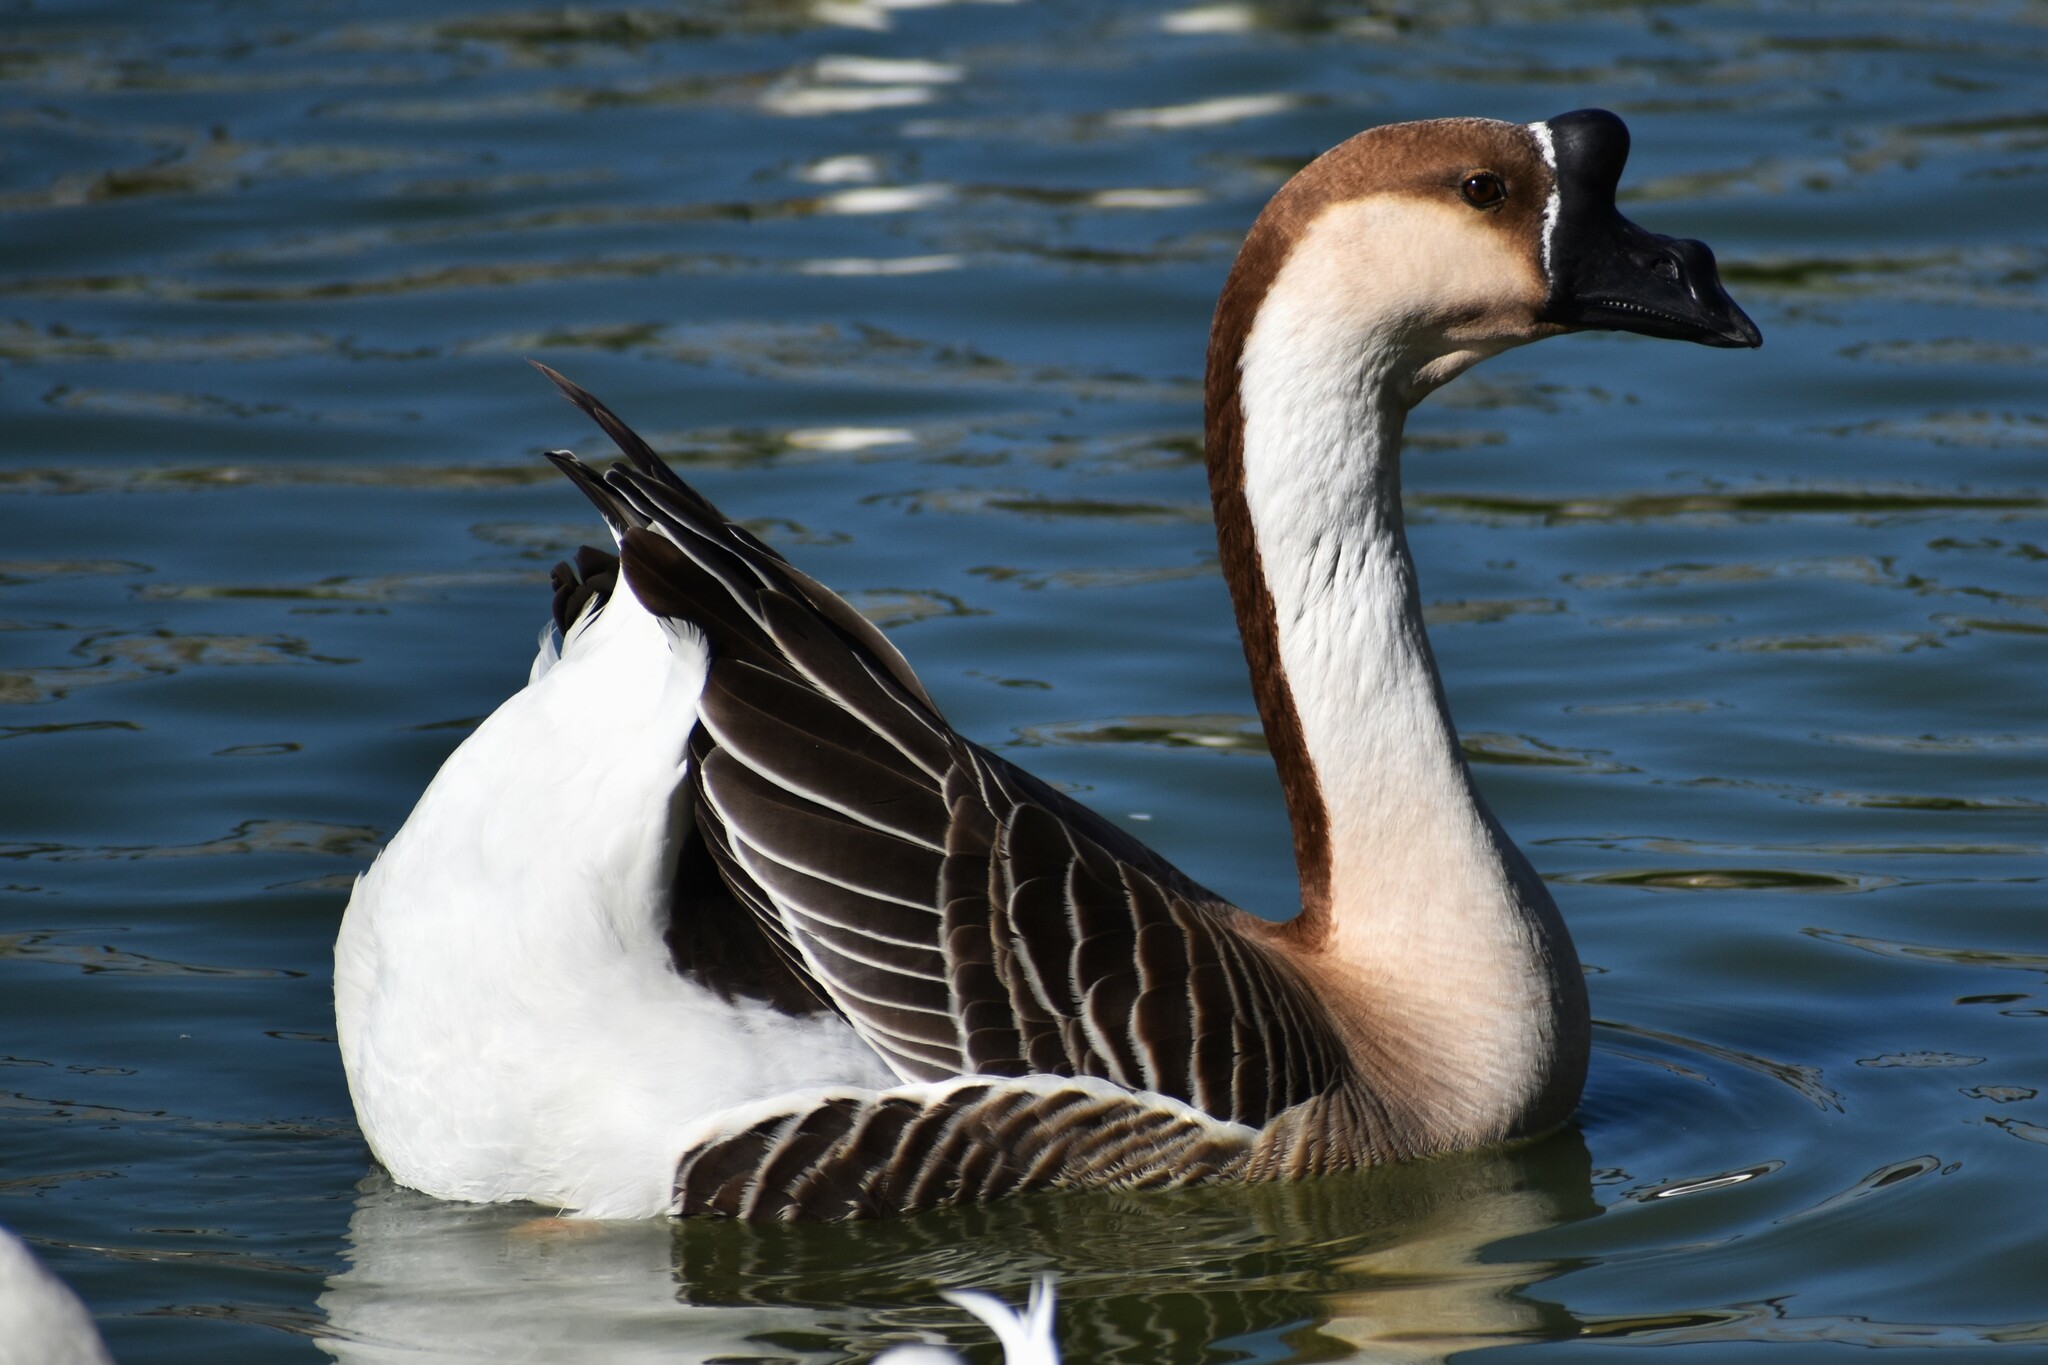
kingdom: Animalia
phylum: Chordata
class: Aves
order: Anseriformes
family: Anatidae
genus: Anser
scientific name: Anser cygnoides
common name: Swan goose
